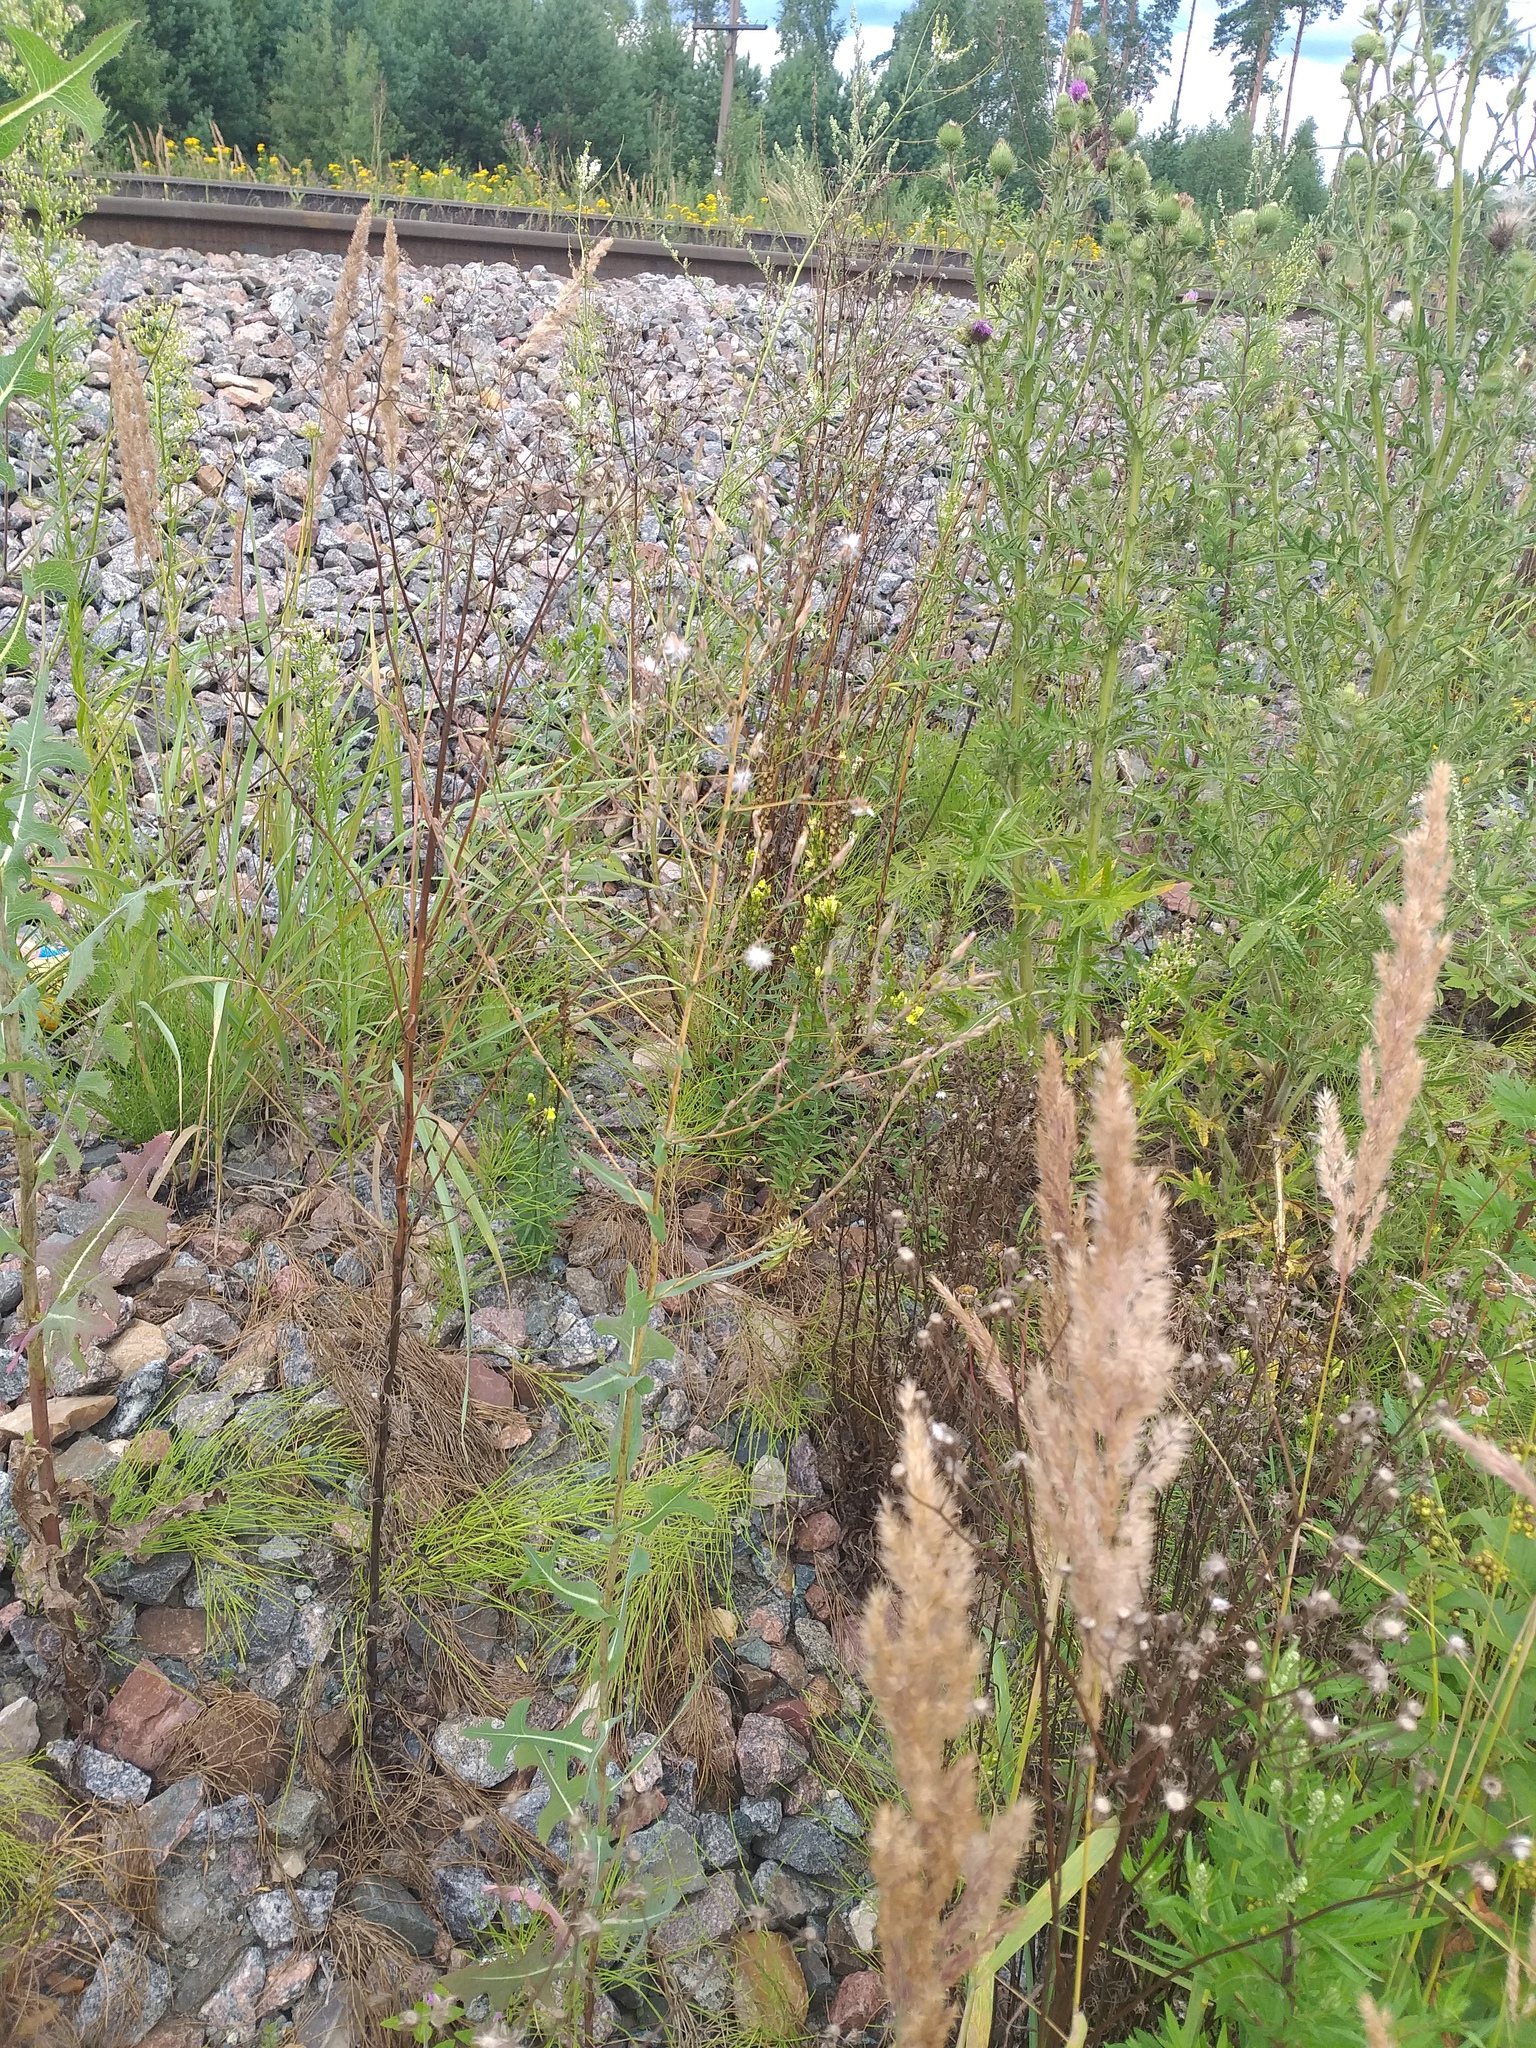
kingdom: Plantae
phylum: Tracheophyta
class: Magnoliopsida
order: Asterales
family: Asteraceae
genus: Lactuca
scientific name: Lactuca serriola
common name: Prickly lettuce
